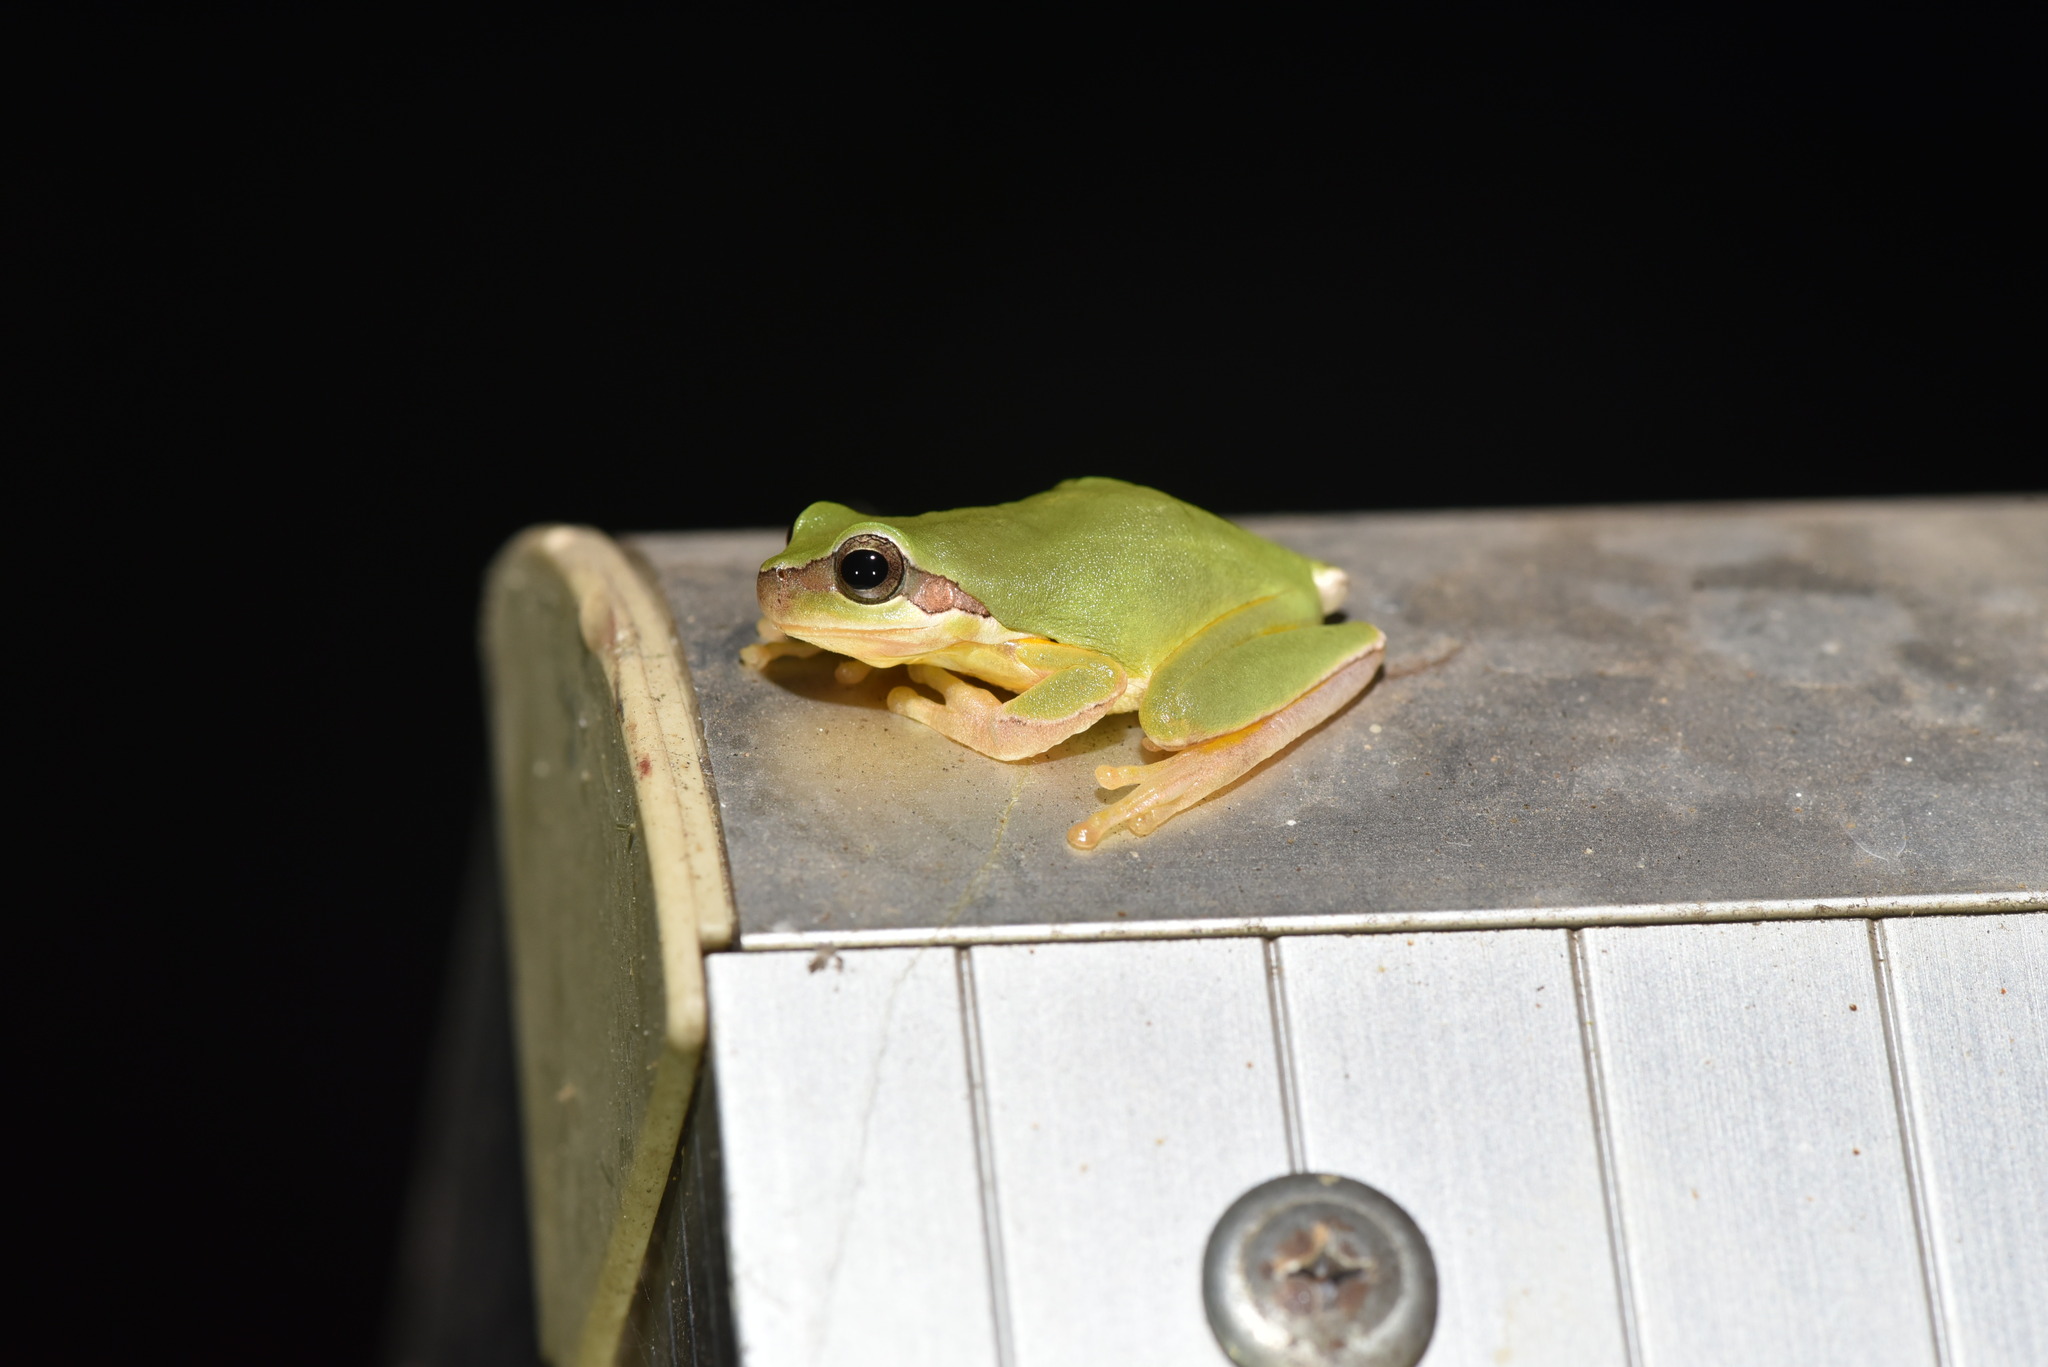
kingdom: Animalia
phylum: Chordata
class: Amphibia
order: Anura
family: Hylidae
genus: Hyla
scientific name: Hyla chinensis
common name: Common chinese treefrog
